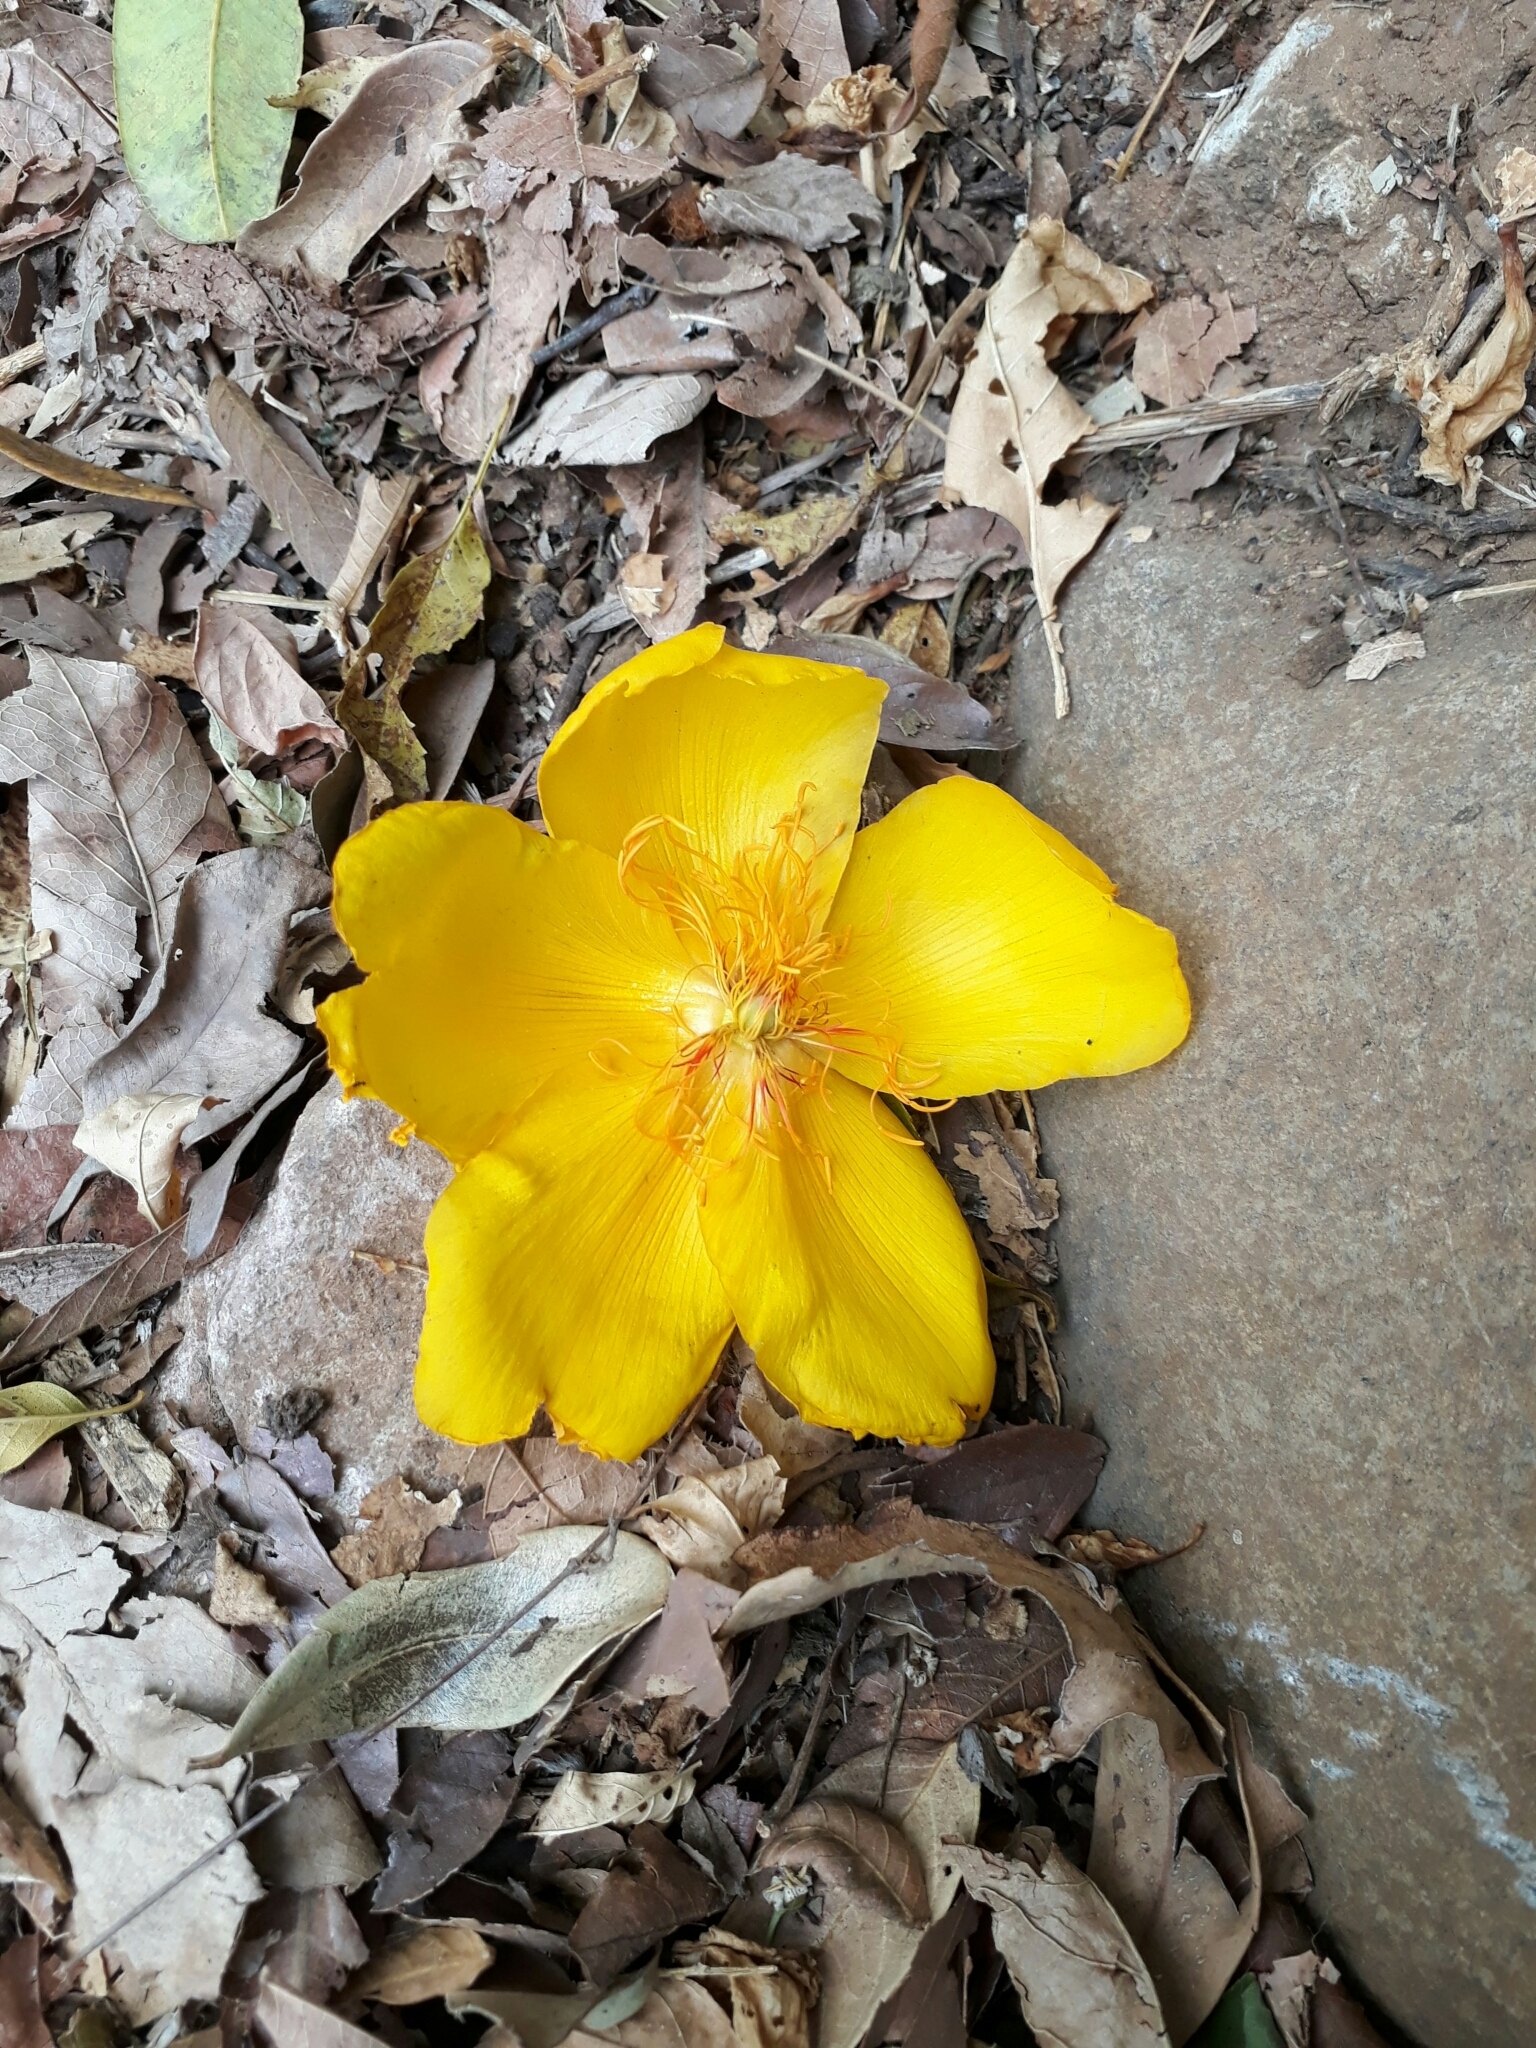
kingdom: Plantae
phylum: Tracheophyta
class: Magnoliopsida
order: Malvales
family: Cochlospermaceae
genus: Cochlospermum
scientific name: Cochlospermum vitifolium
